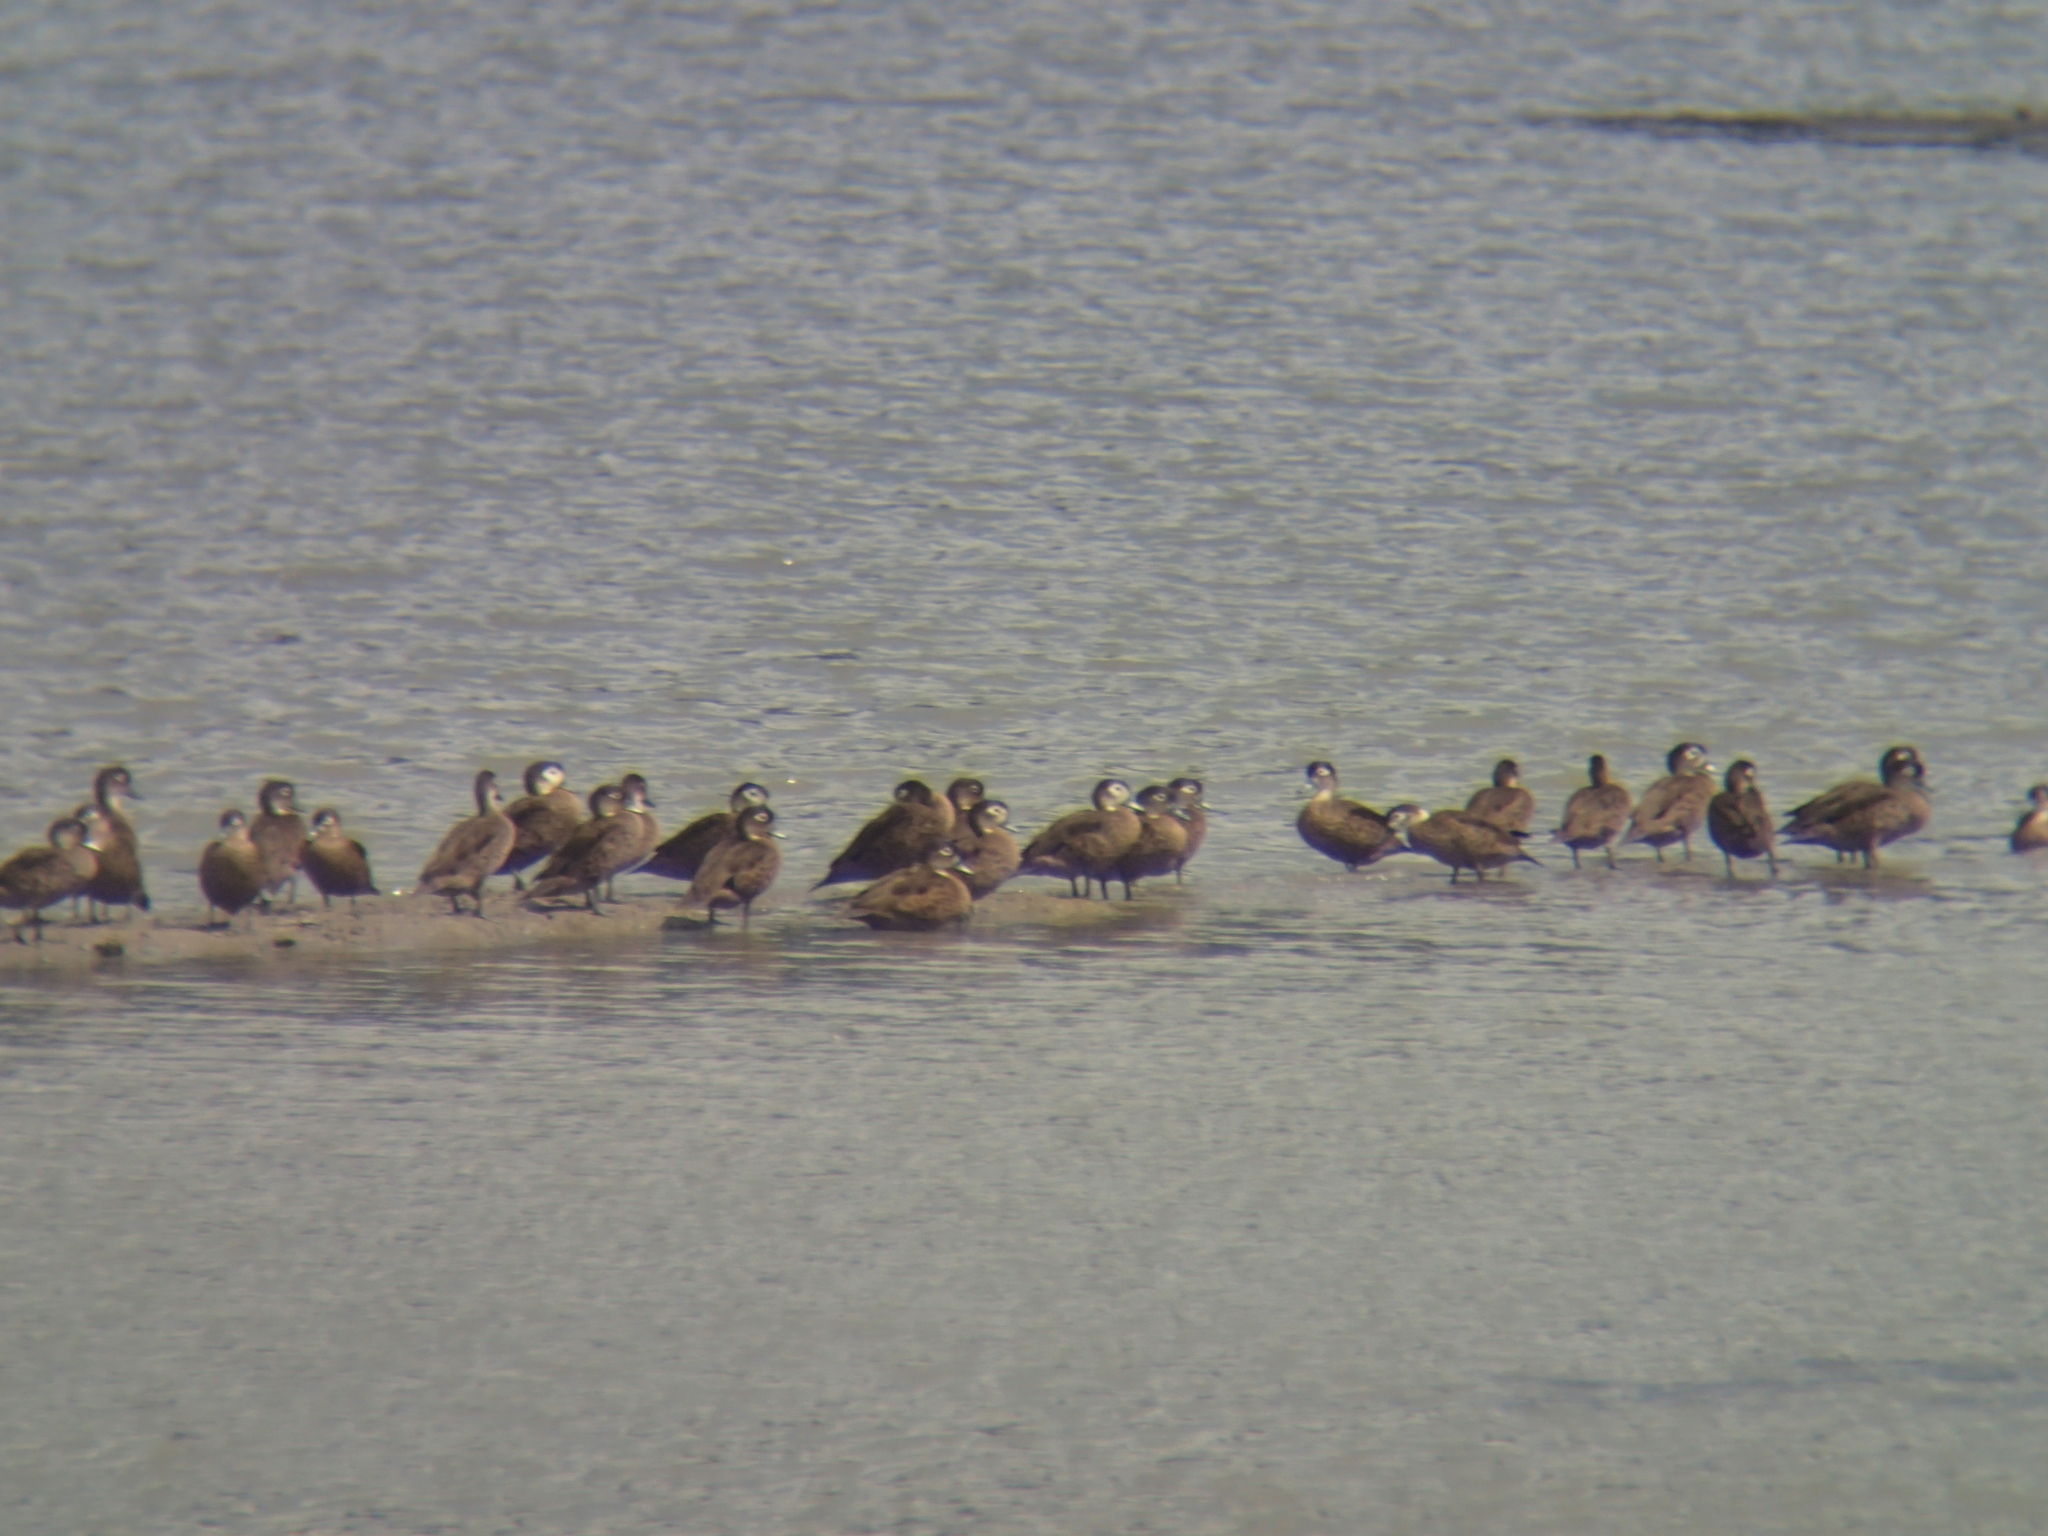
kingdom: Animalia
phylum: Chordata
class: Aves
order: Anseriformes
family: Anatidae
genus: Anas
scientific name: Anas albogularis
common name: Andaman teal
